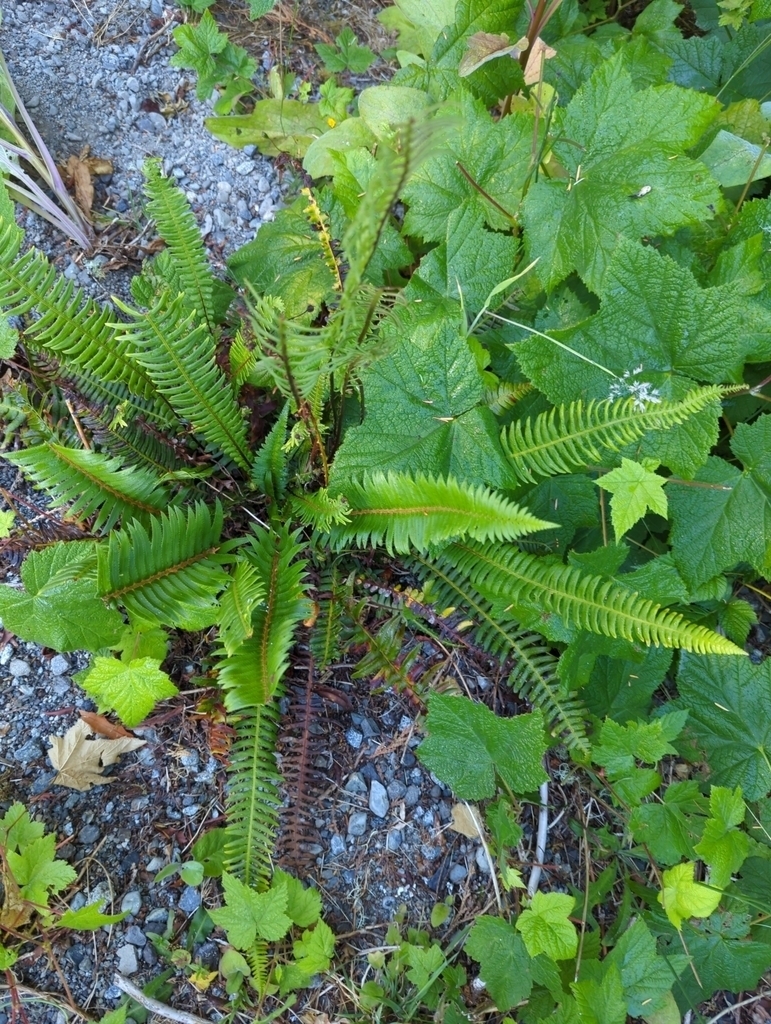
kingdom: Plantae
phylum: Tracheophyta
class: Polypodiopsida
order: Polypodiales
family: Dryopteridaceae
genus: Polystichum
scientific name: Polystichum munitum
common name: Western sword-fern
